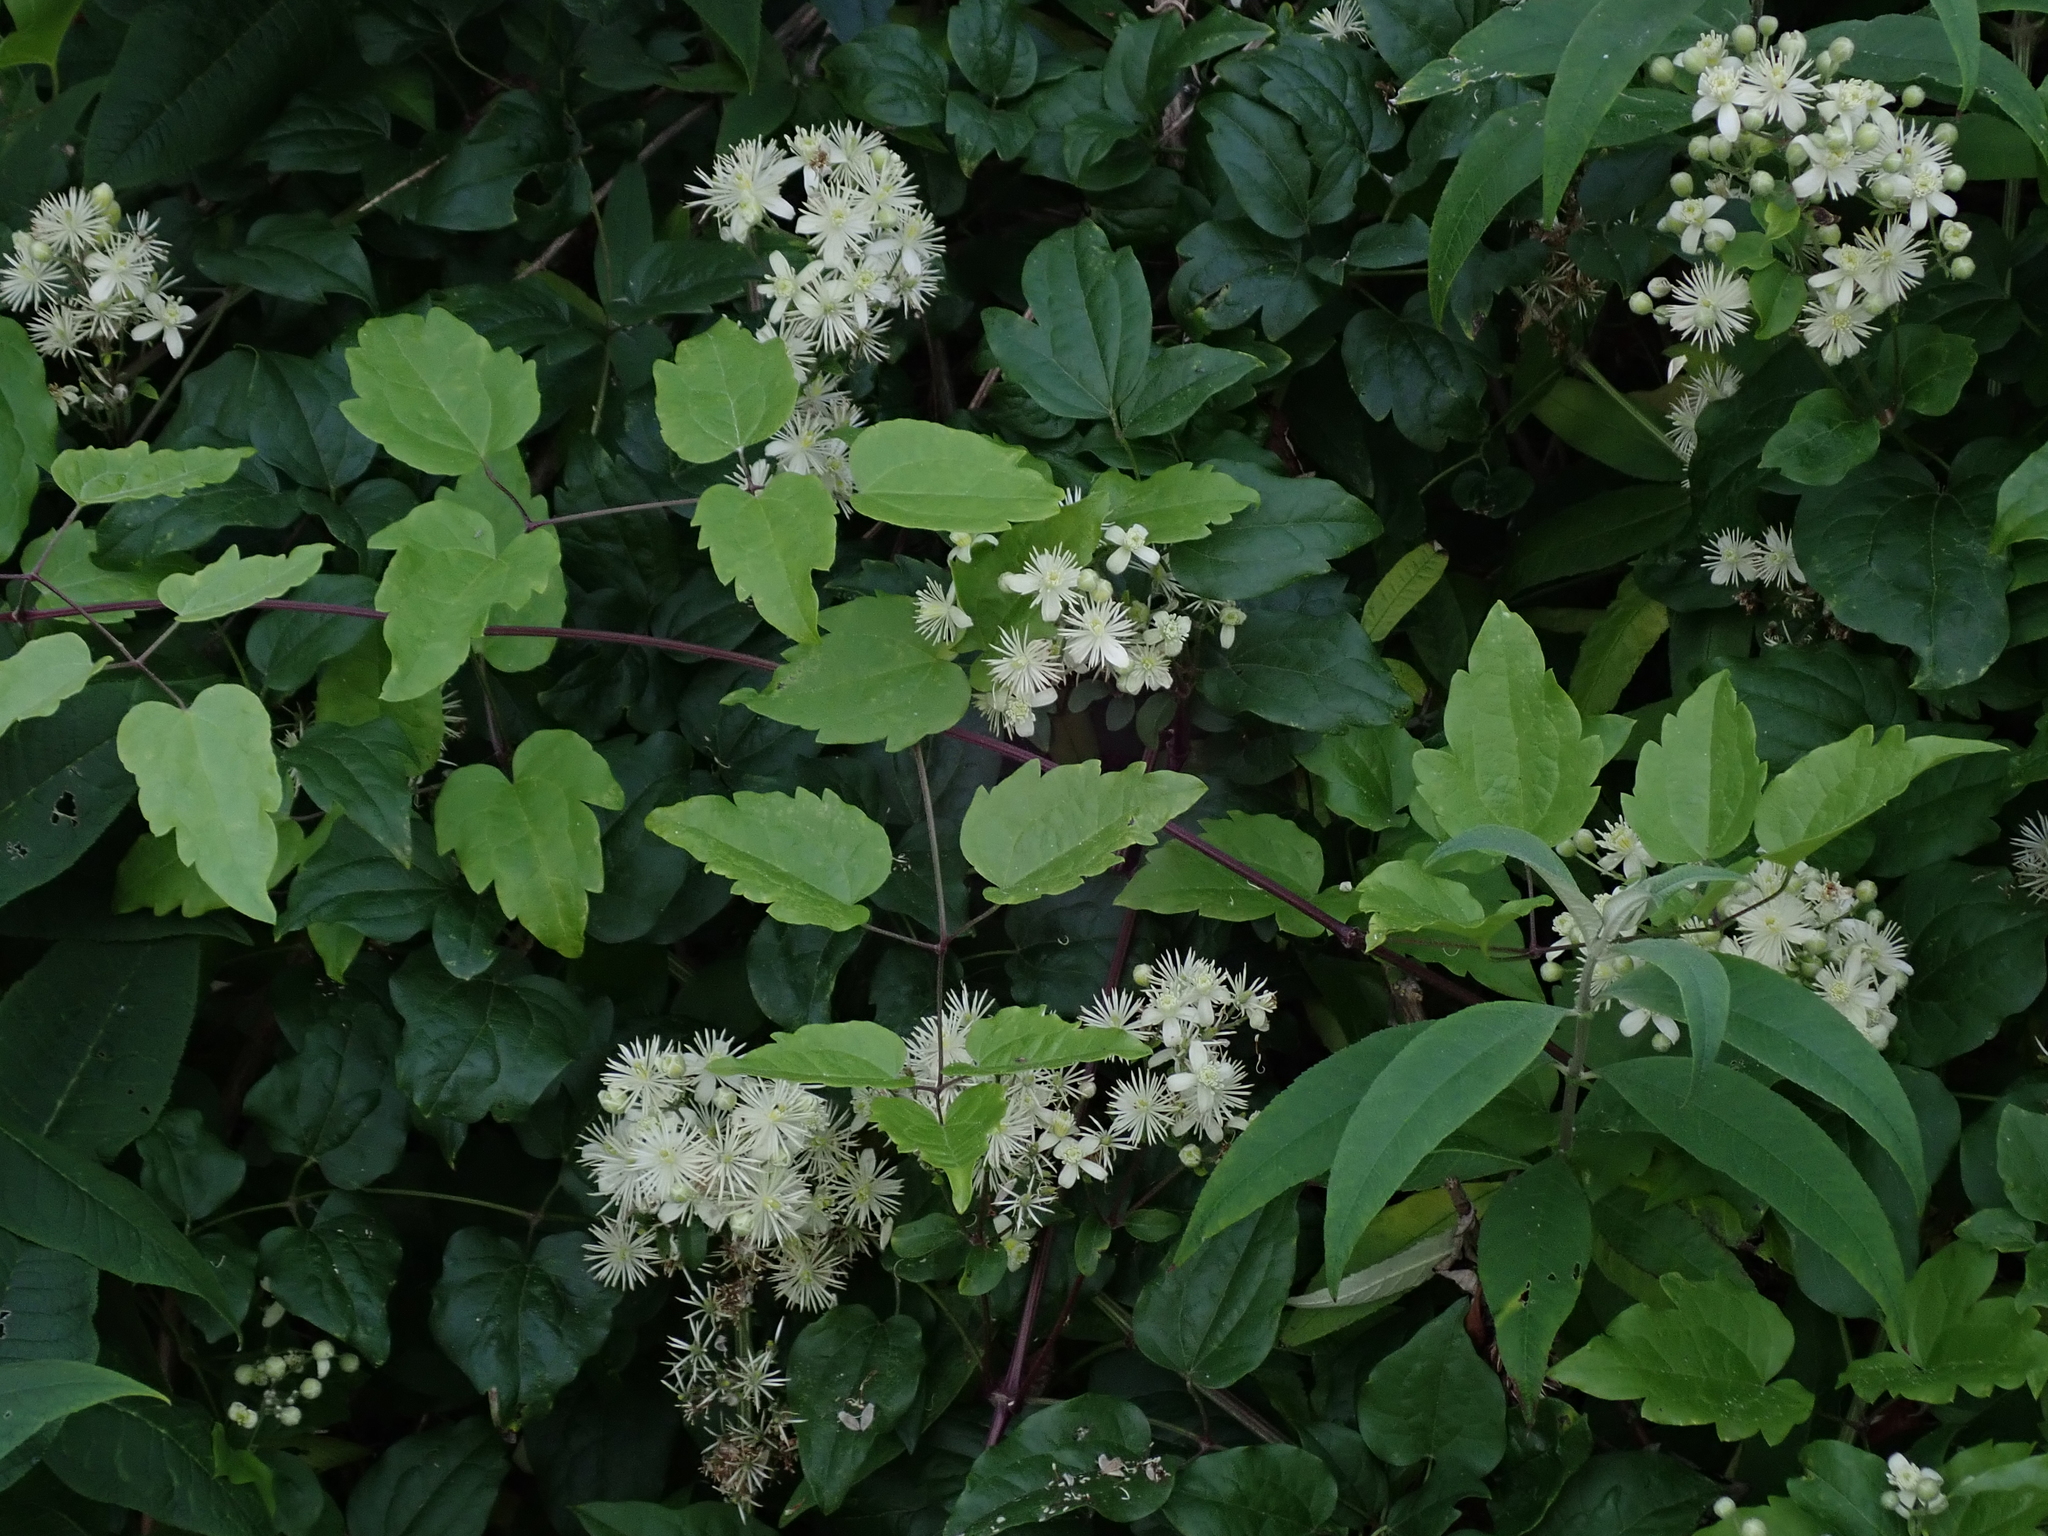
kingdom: Plantae
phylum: Tracheophyta
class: Magnoliopsida
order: Ranunculales
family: Ranunculaceae
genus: Clematis
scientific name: Clematis vitalba
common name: Evergreen clematis
